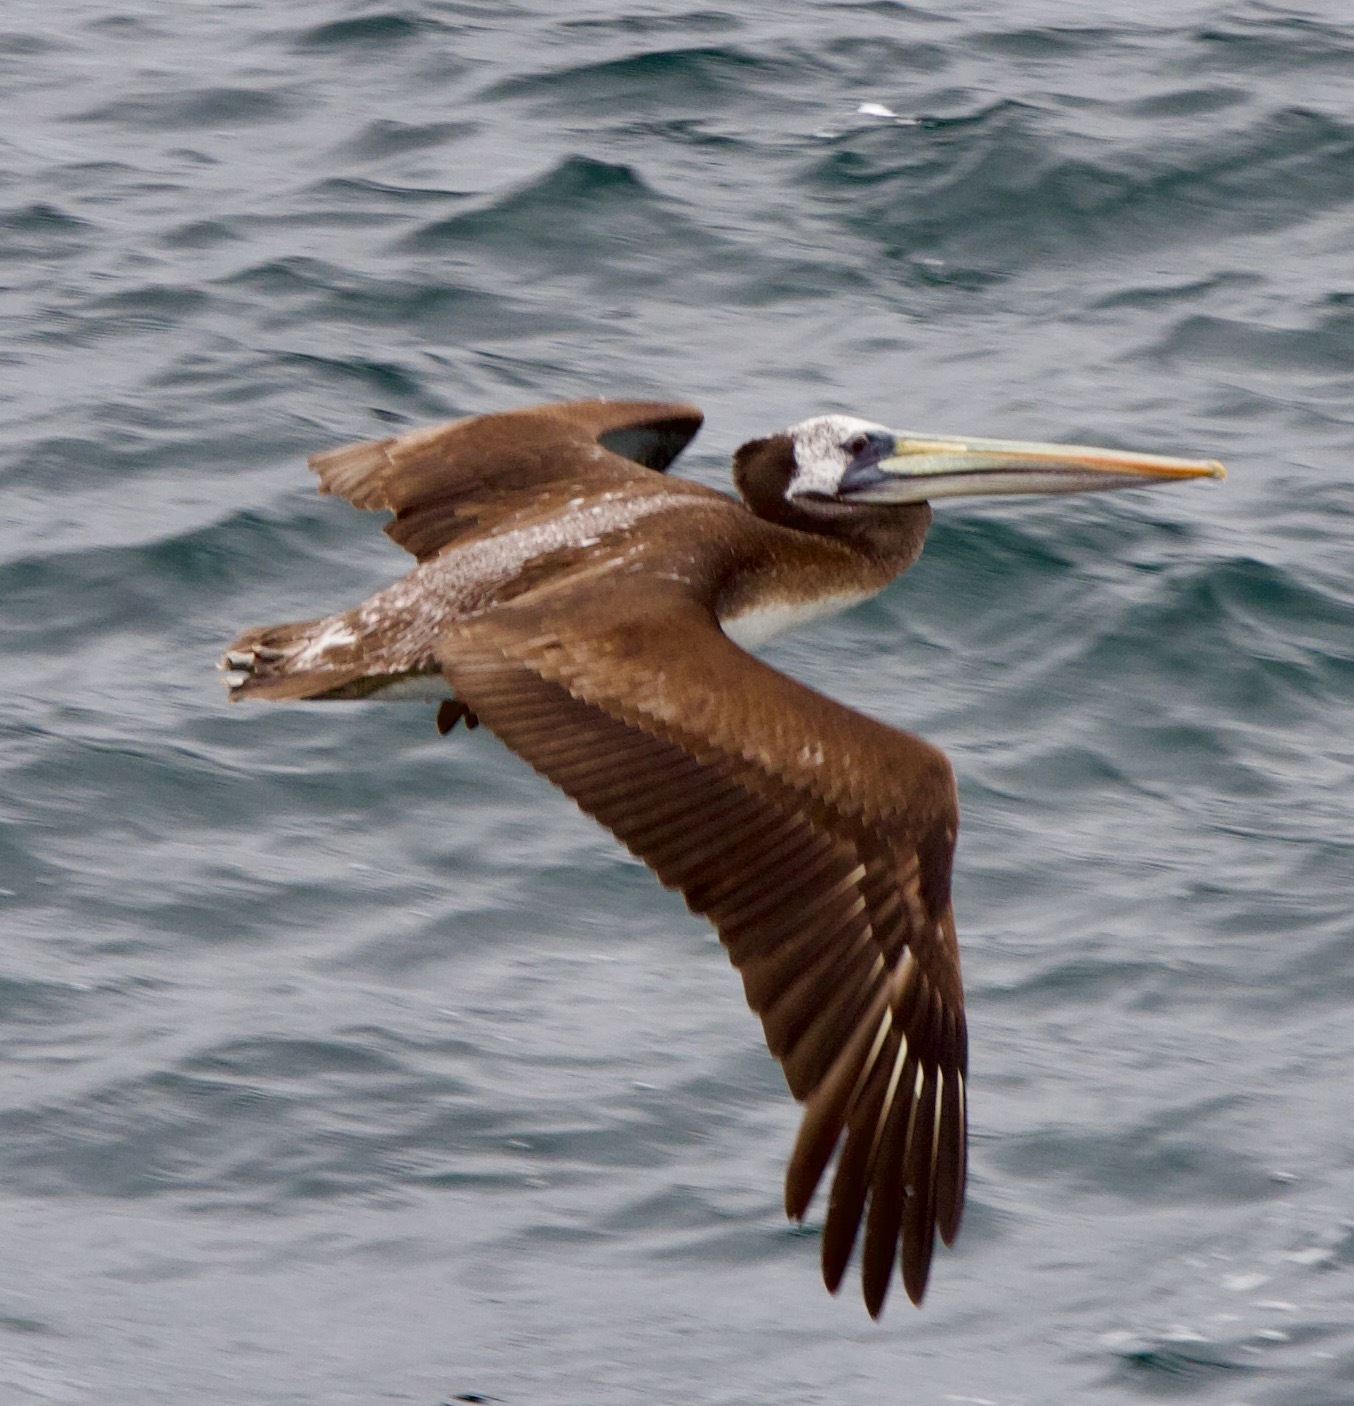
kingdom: Animalia
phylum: Chordata
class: Aves
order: Pelecaniformes
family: Pelecanidae
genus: Pelecanus
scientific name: Pelecanus thagus
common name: Peruvian pelican
